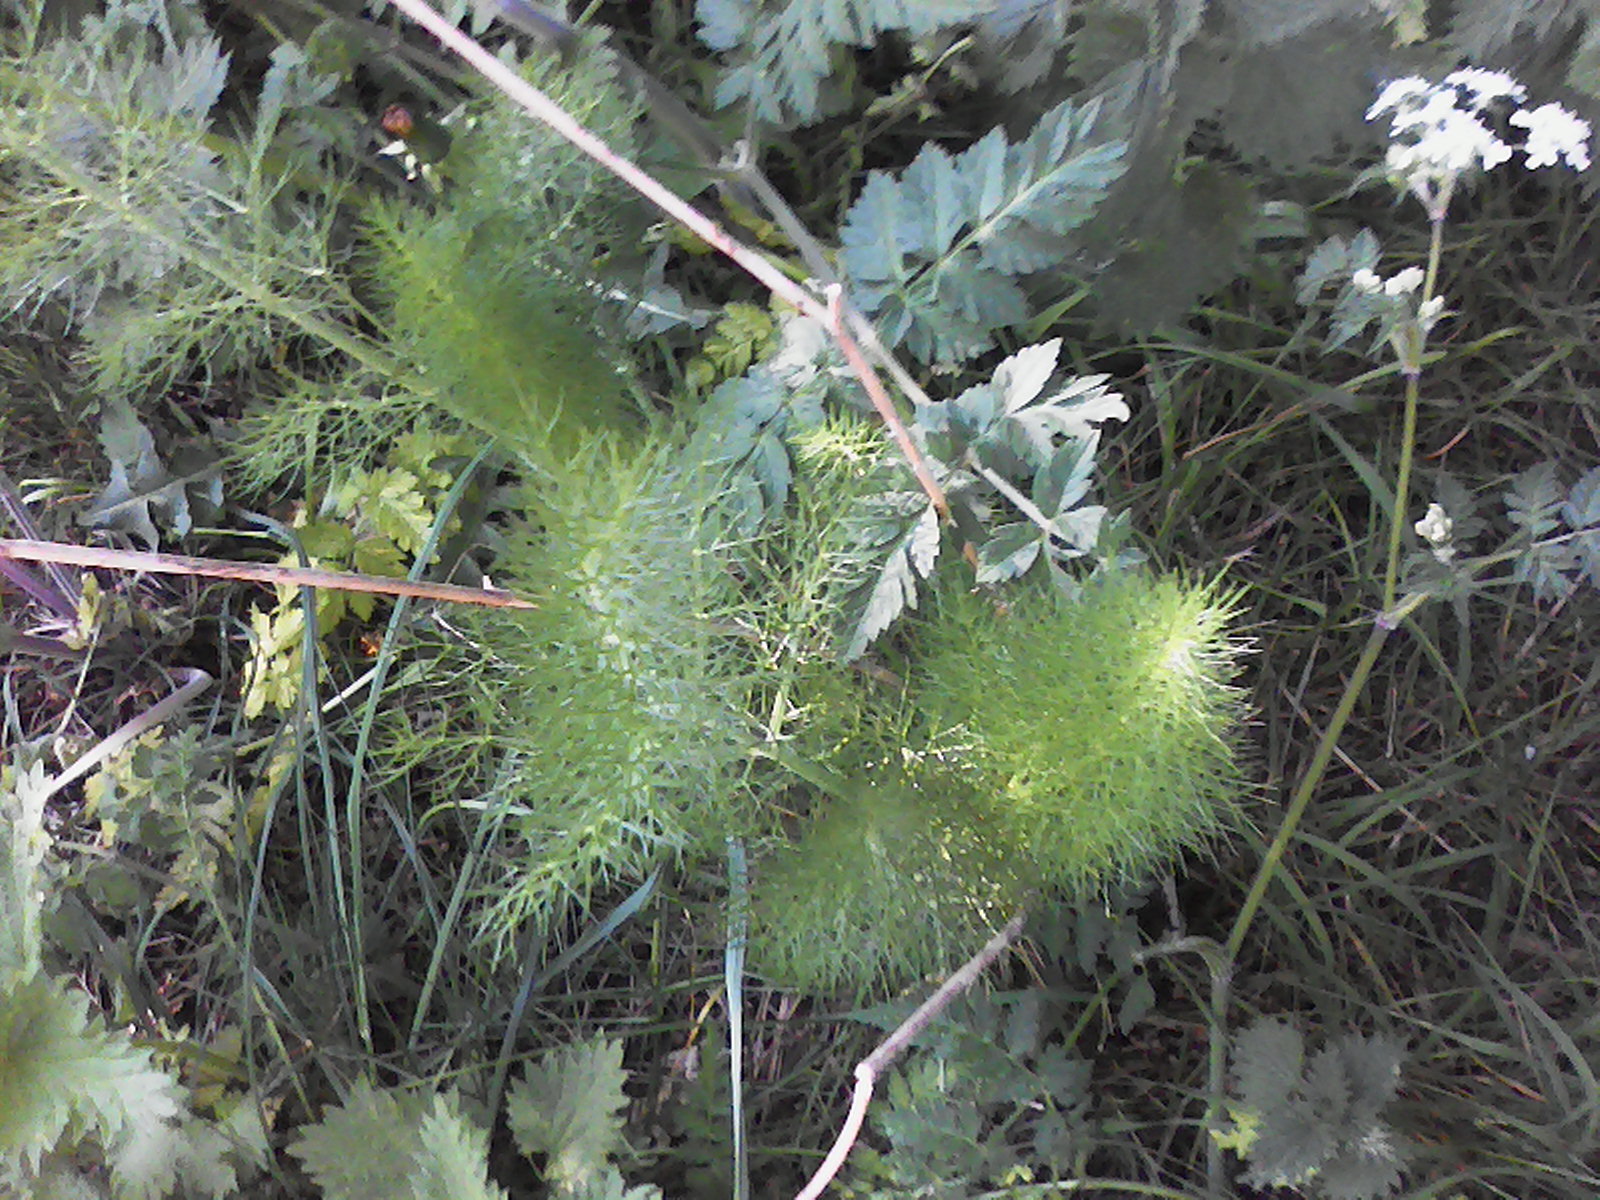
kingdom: Plantae
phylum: Tracheophyta
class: Magnoliopsida
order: Apiales
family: Apiaceae
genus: Foeniculum
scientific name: Foeniculum vulgare
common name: Fennel
